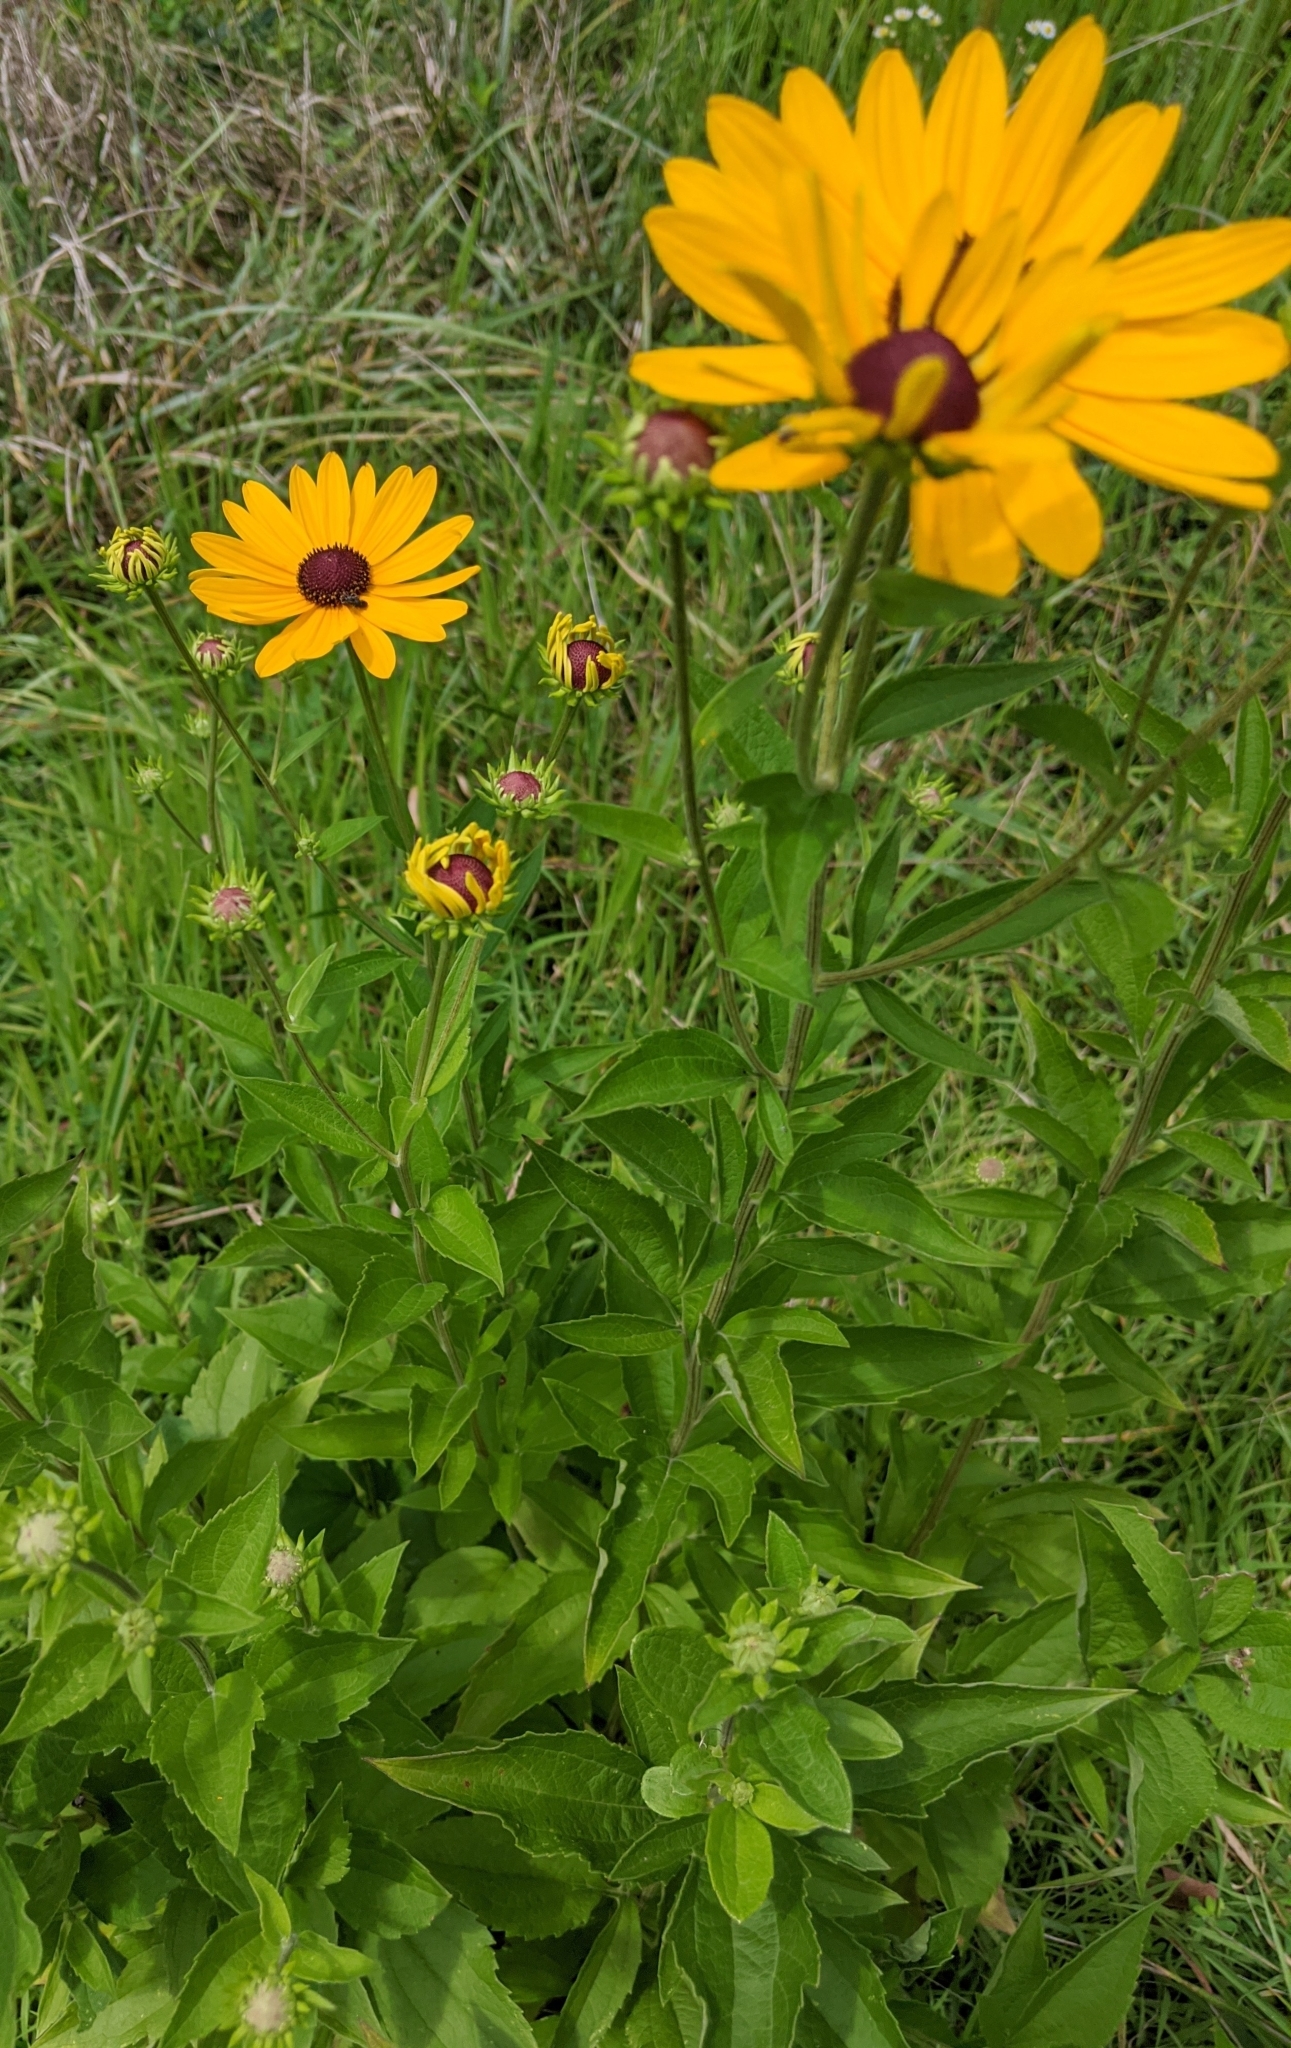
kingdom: Plantae
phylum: Tracheophyta
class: Magnoliopsida
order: Asterales
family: Asteraceae
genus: Rudbeckia
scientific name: Rudbeckia subtomentosa
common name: Sweet coneflower
